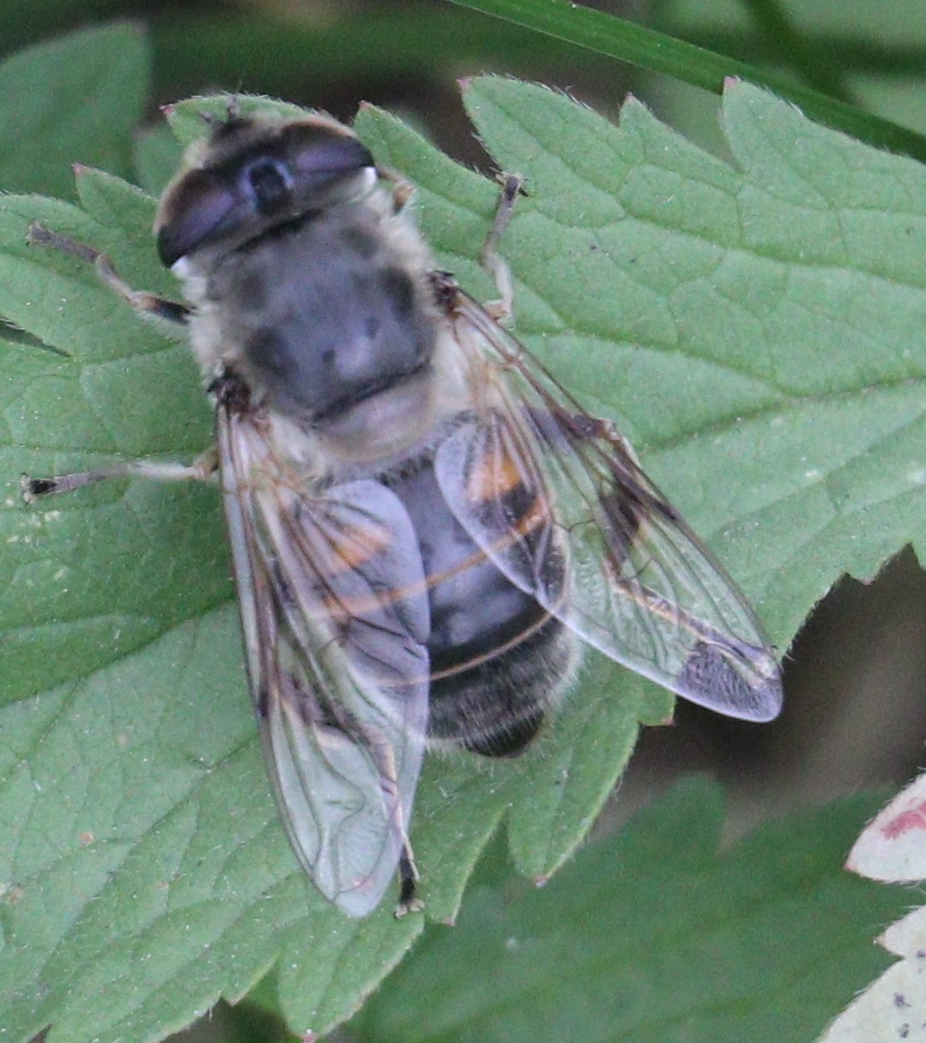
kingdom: Animalia
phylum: Arthropoda
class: Insecta
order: Diptera
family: Syrphidae
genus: Eristalis
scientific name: Eristalis tenax
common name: Drone fly
